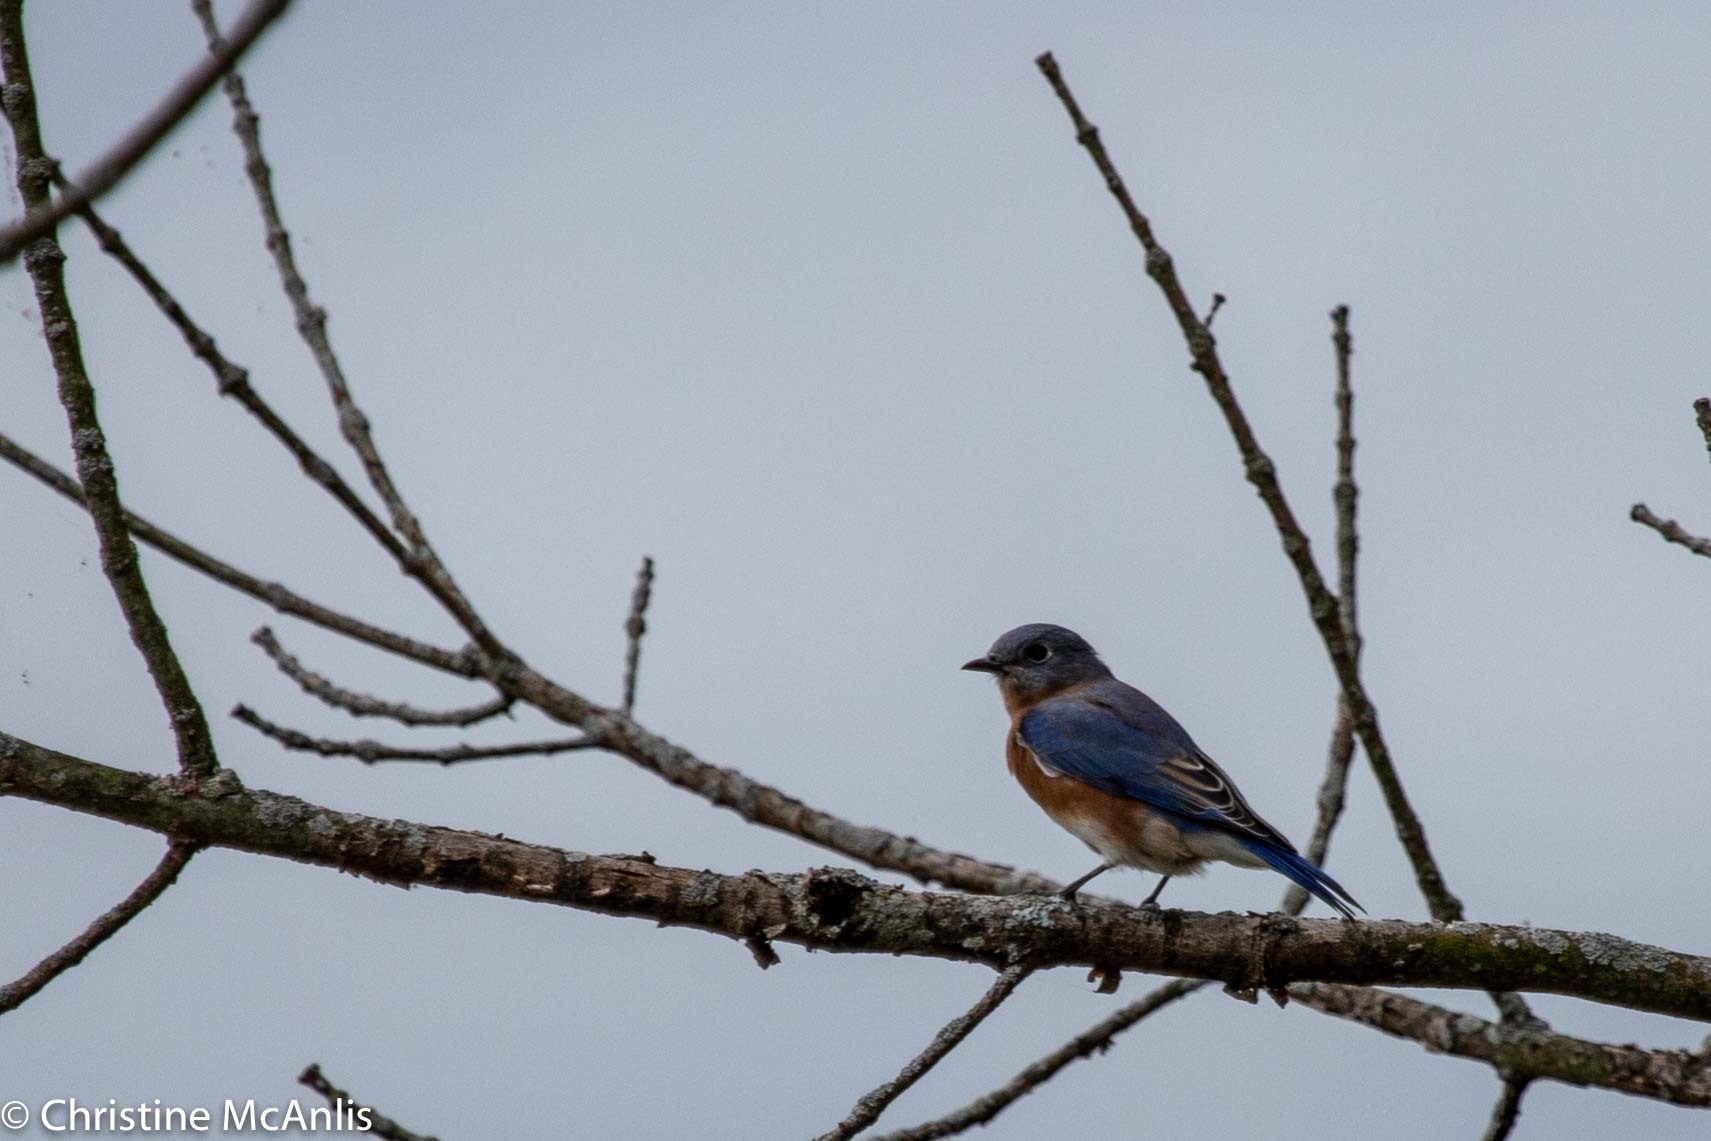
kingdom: Animalia
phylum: Chordata
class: Aves
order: Passeriformes
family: Turdidae
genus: Sialia
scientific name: Sialia sialis
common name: Eastern bluebird
